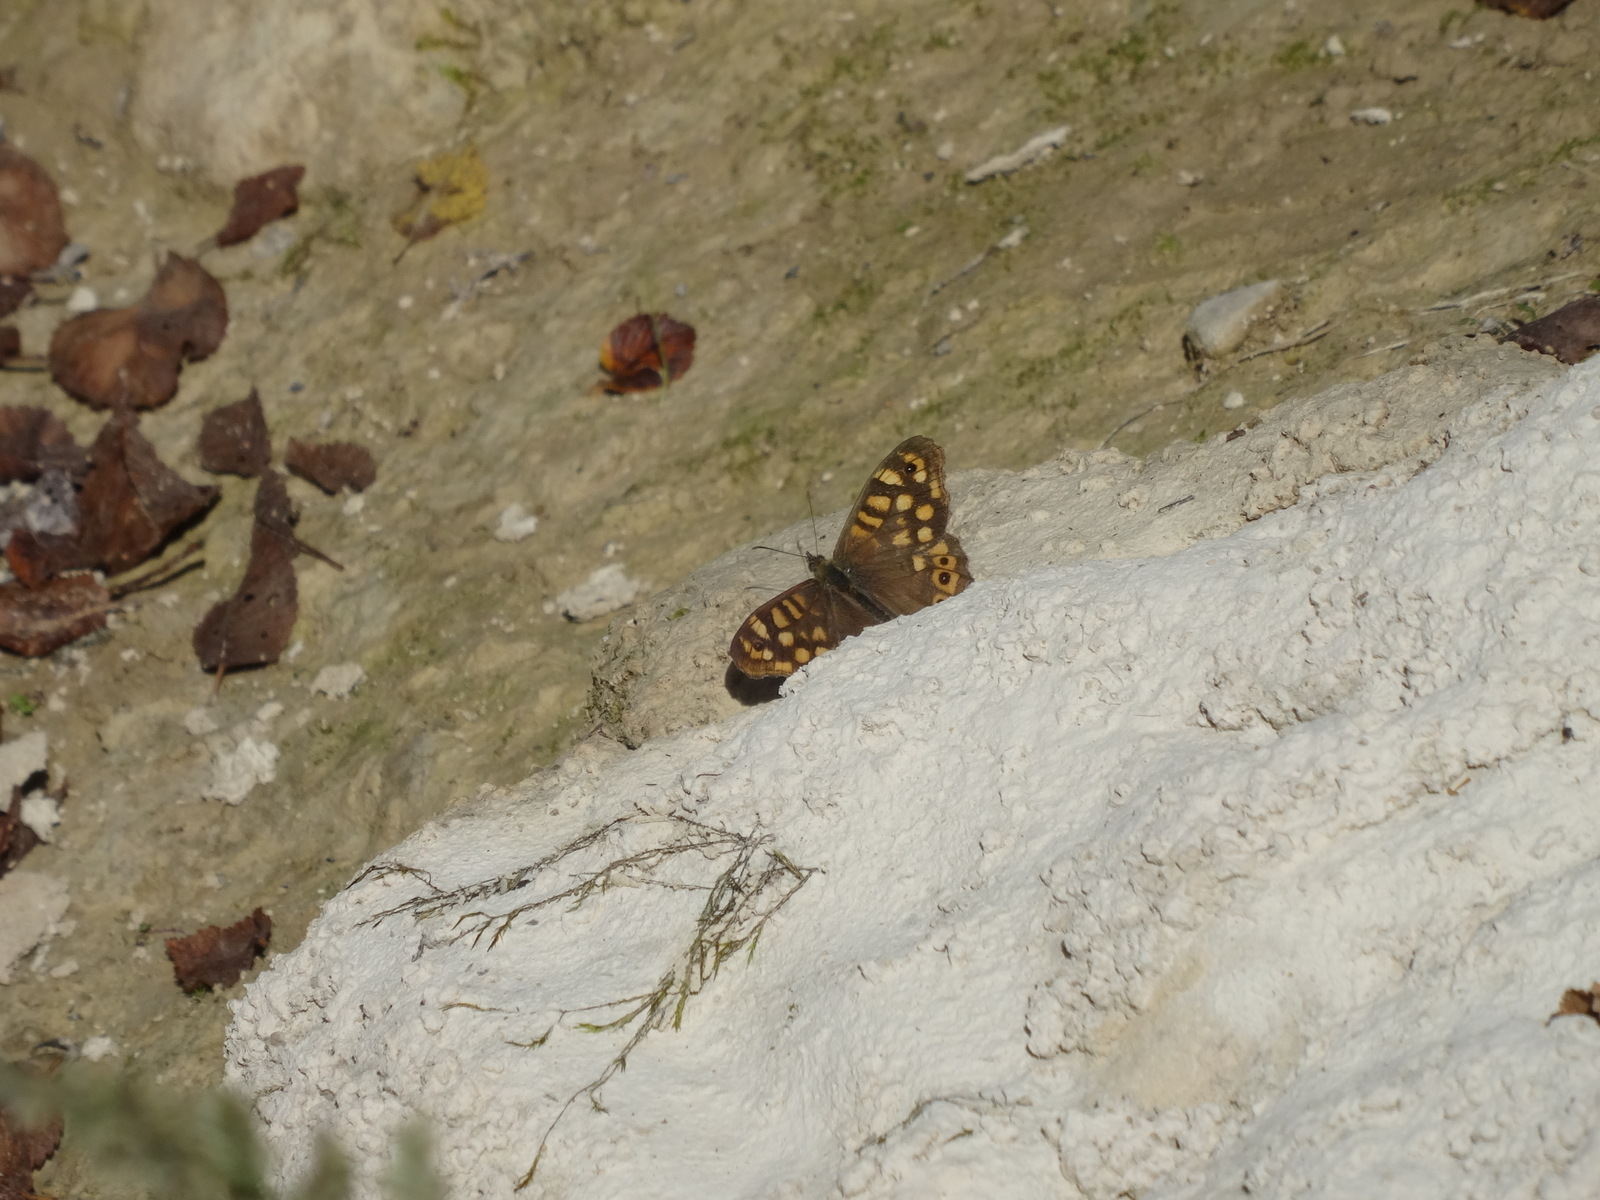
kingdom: Animalia
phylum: Arthropoda
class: Insecta
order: Lepidoptera
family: Nymphalidae
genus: Pararge
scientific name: Pararge aegeria
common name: Speckled wood
